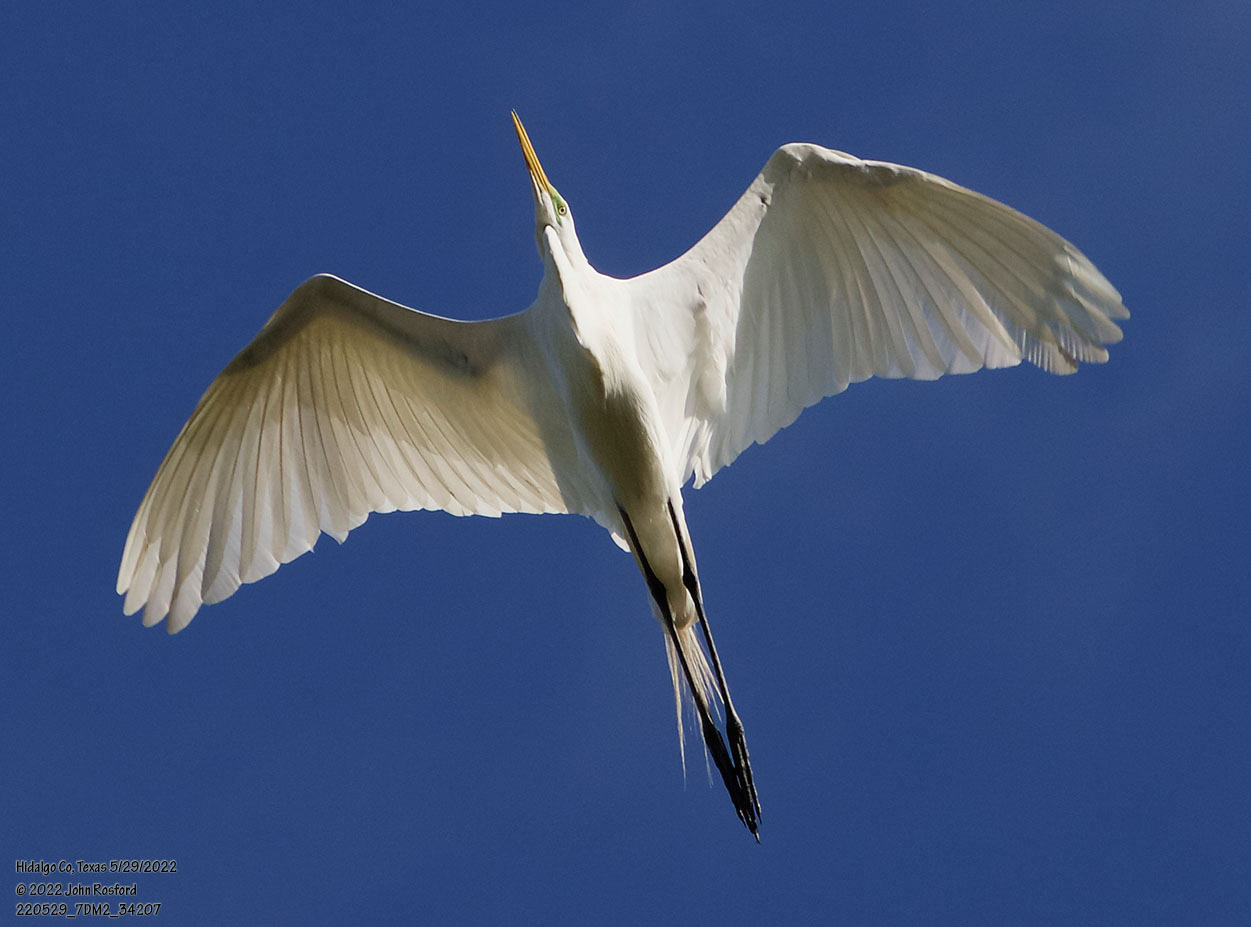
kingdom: Animalia
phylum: Chordata
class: Aves
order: Pelecaniformes
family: Ardeidae
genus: Ardea
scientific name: Ardea alba
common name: Great egret
